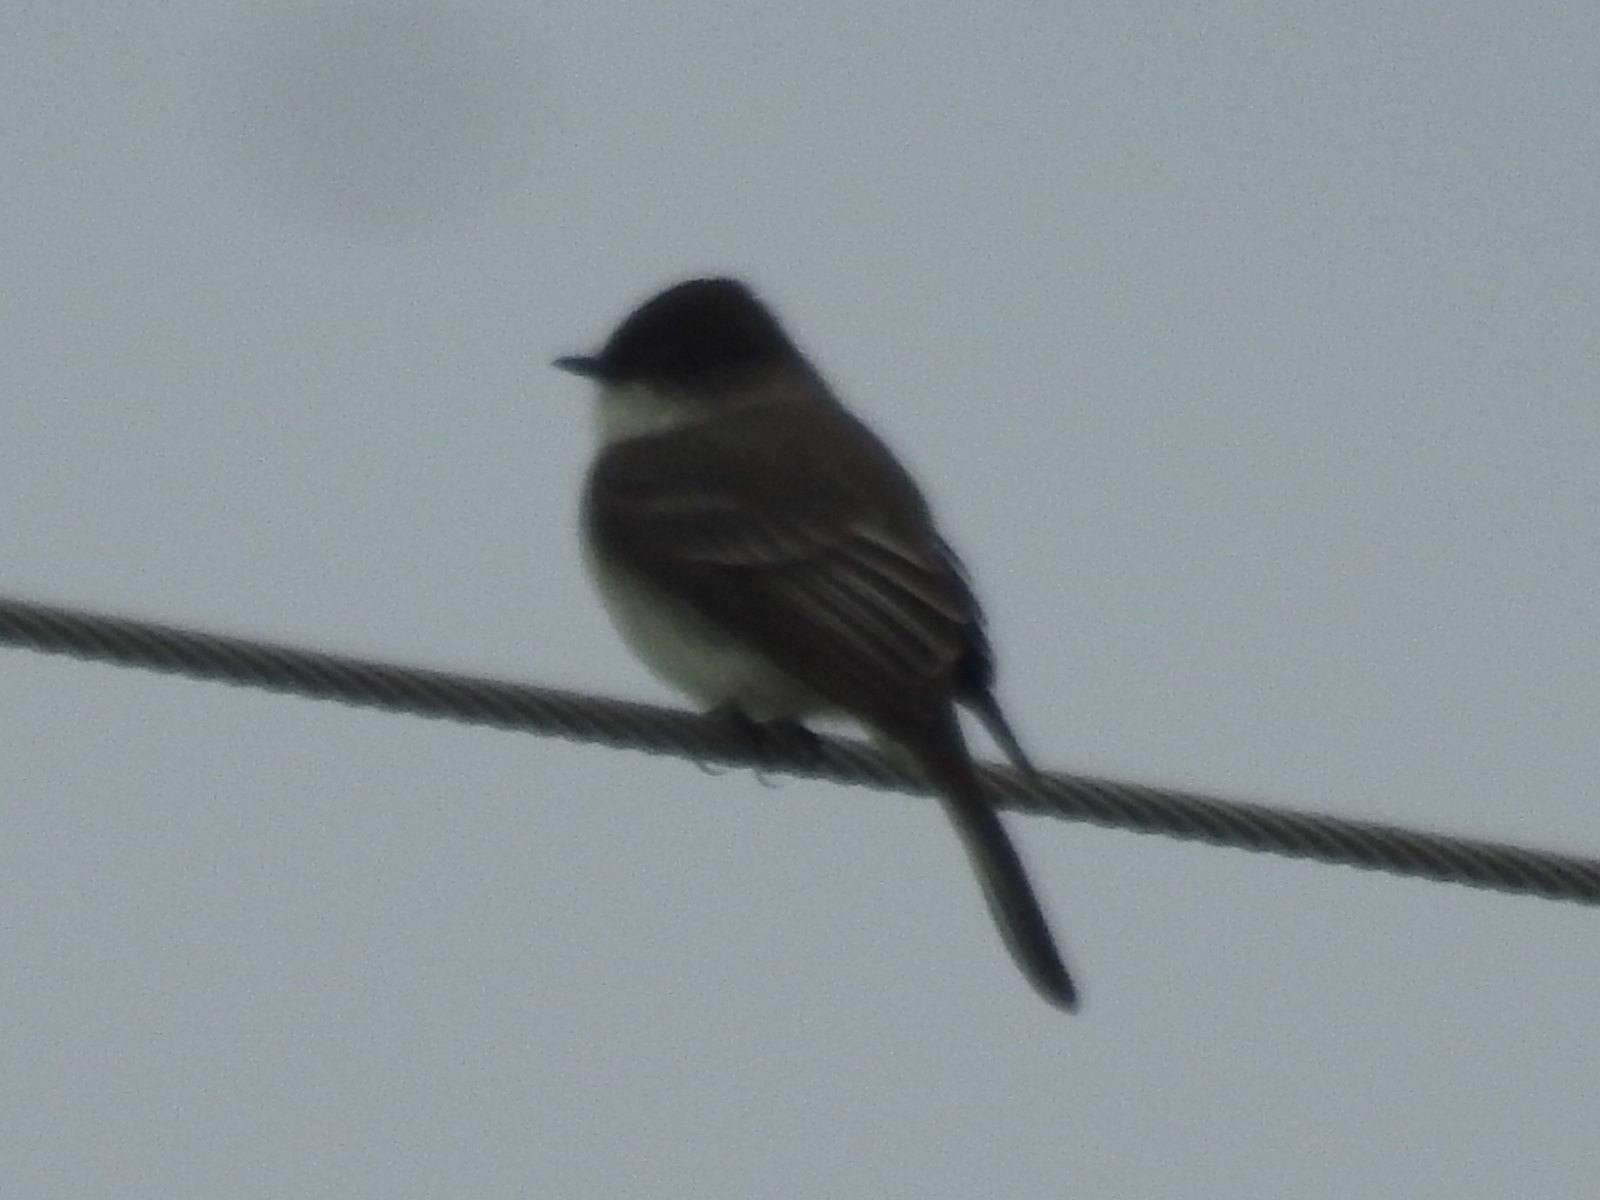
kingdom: Animalia
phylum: Chordata
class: Aves
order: Passeriformes
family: Tyrannidae
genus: Sayornis
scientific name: Sayornis phoebe
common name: Eastern phoebe
